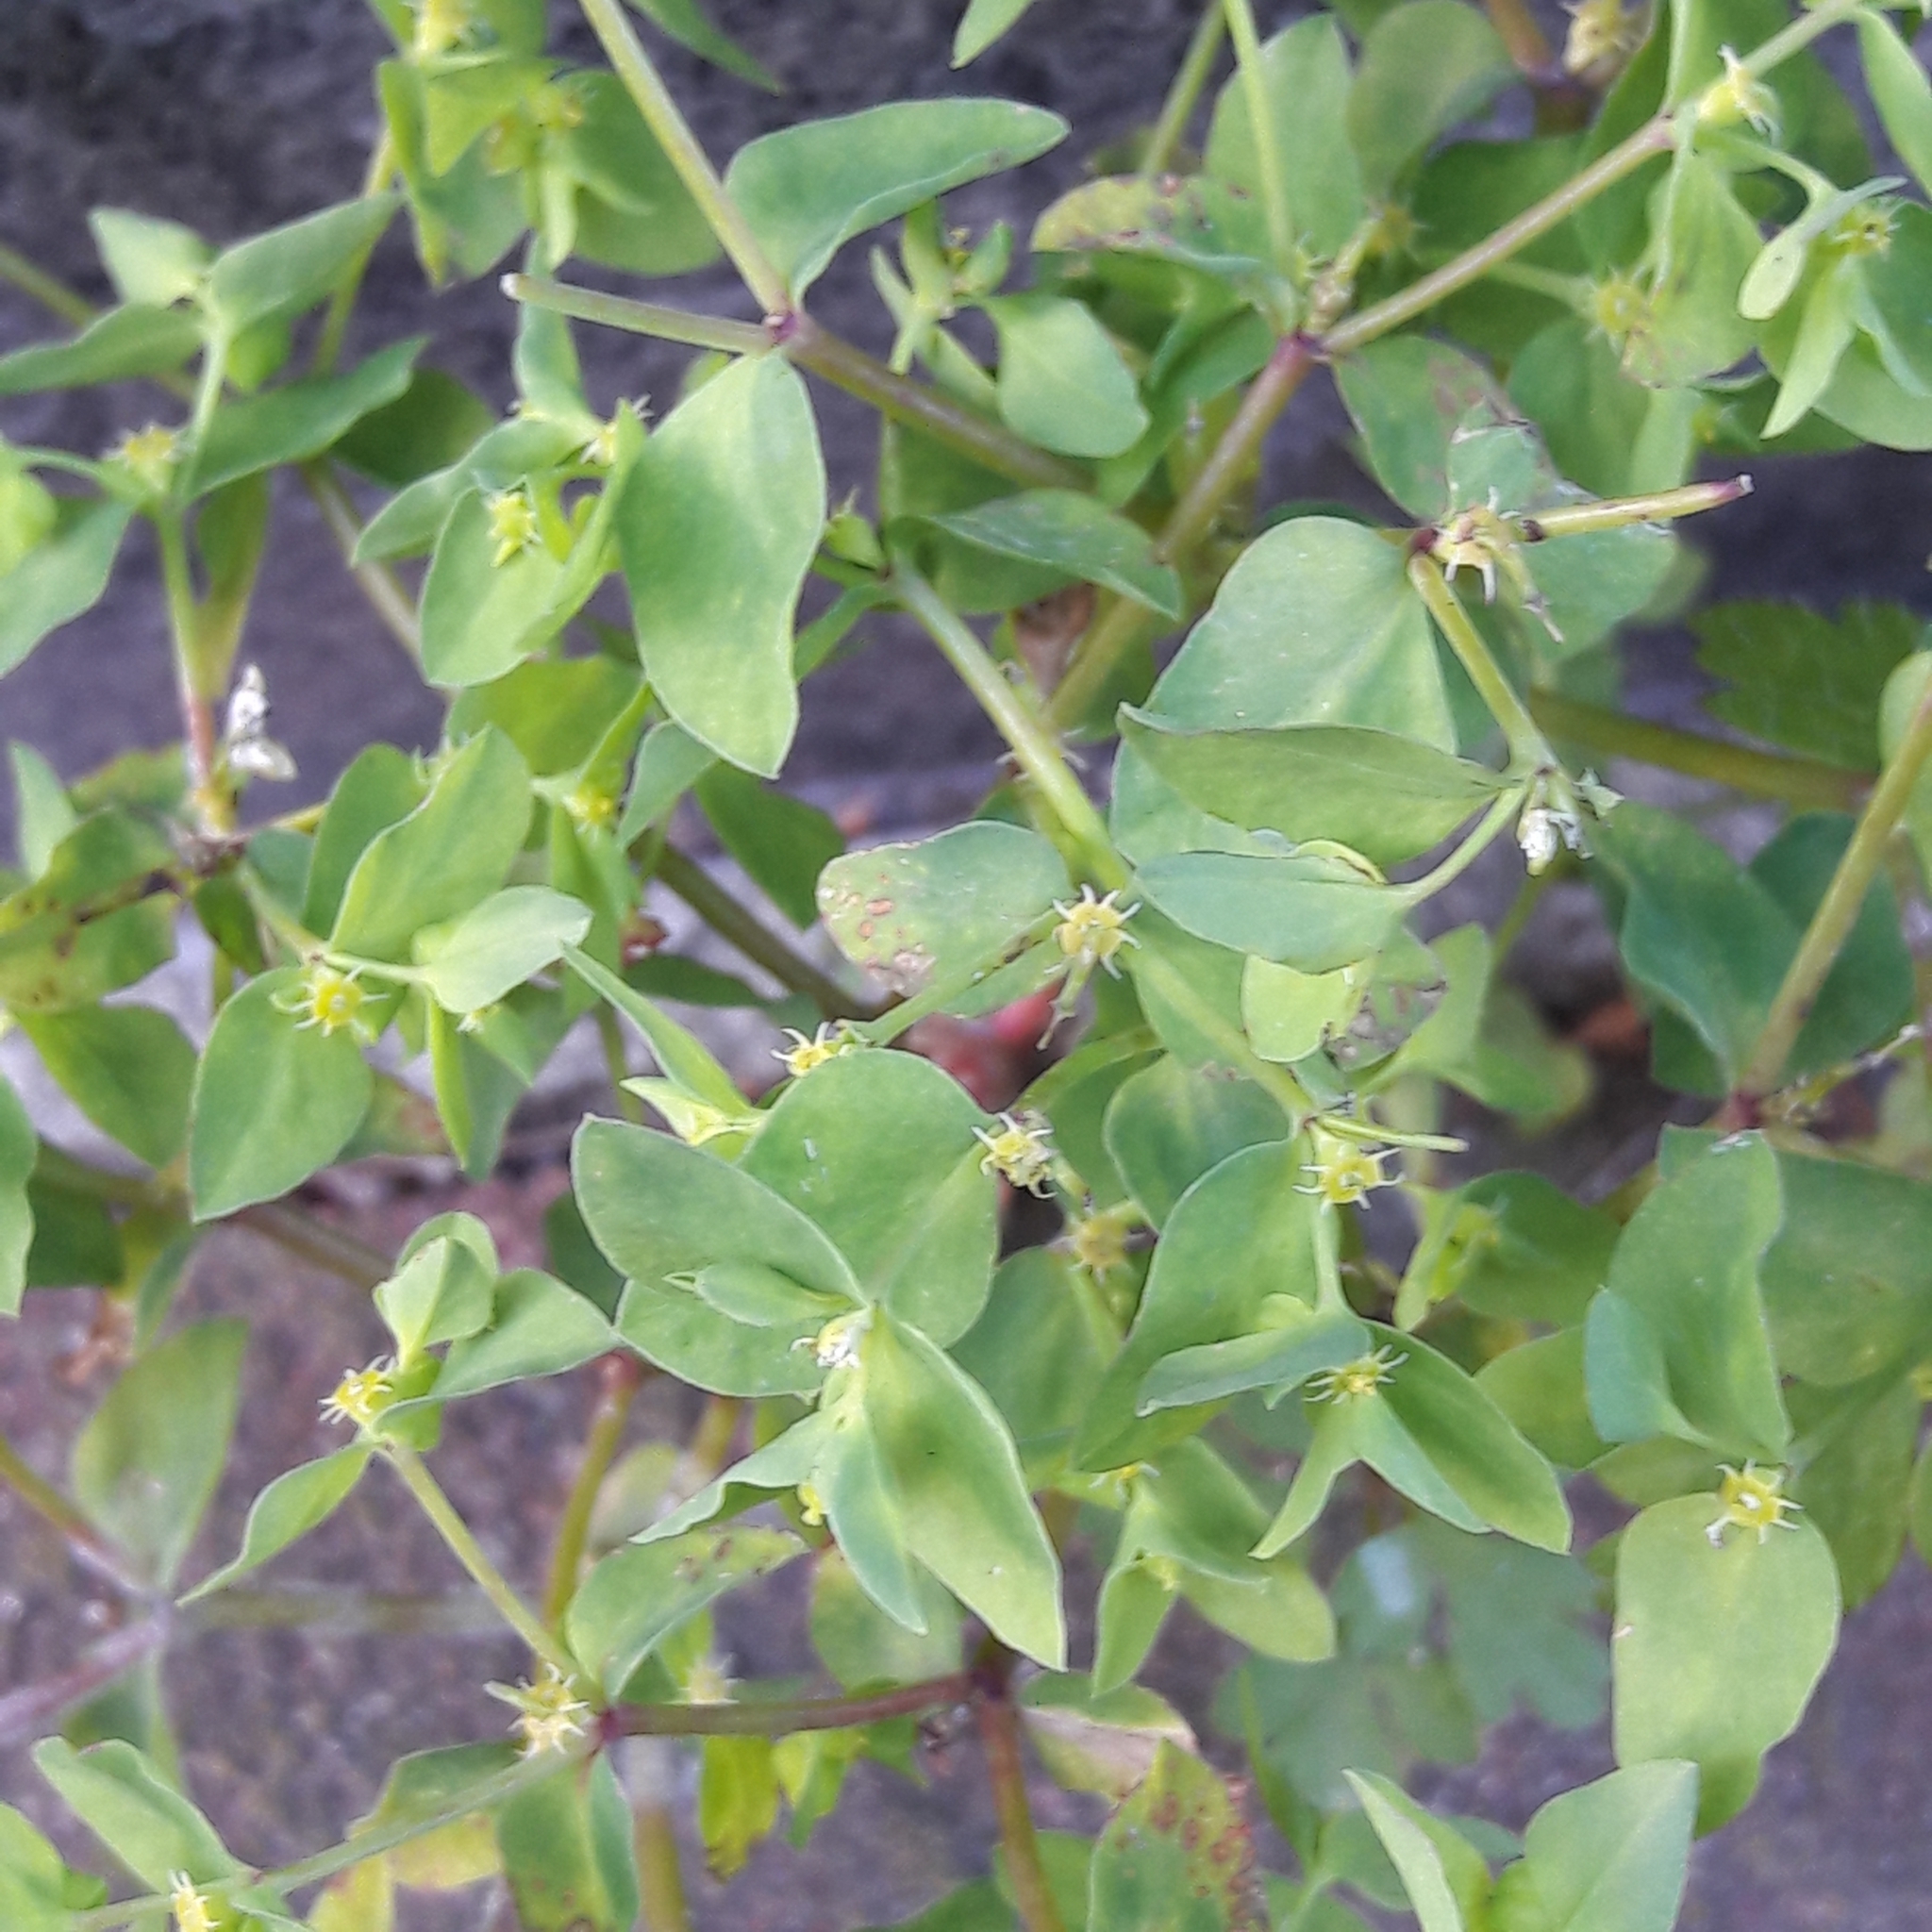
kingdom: Plantae
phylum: Tracheophyta
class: Magnoliopsida
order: Malpighiales
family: Euphorbiaceae
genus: Euphorbia
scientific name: Euphorbia peplus
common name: Petty spurge
